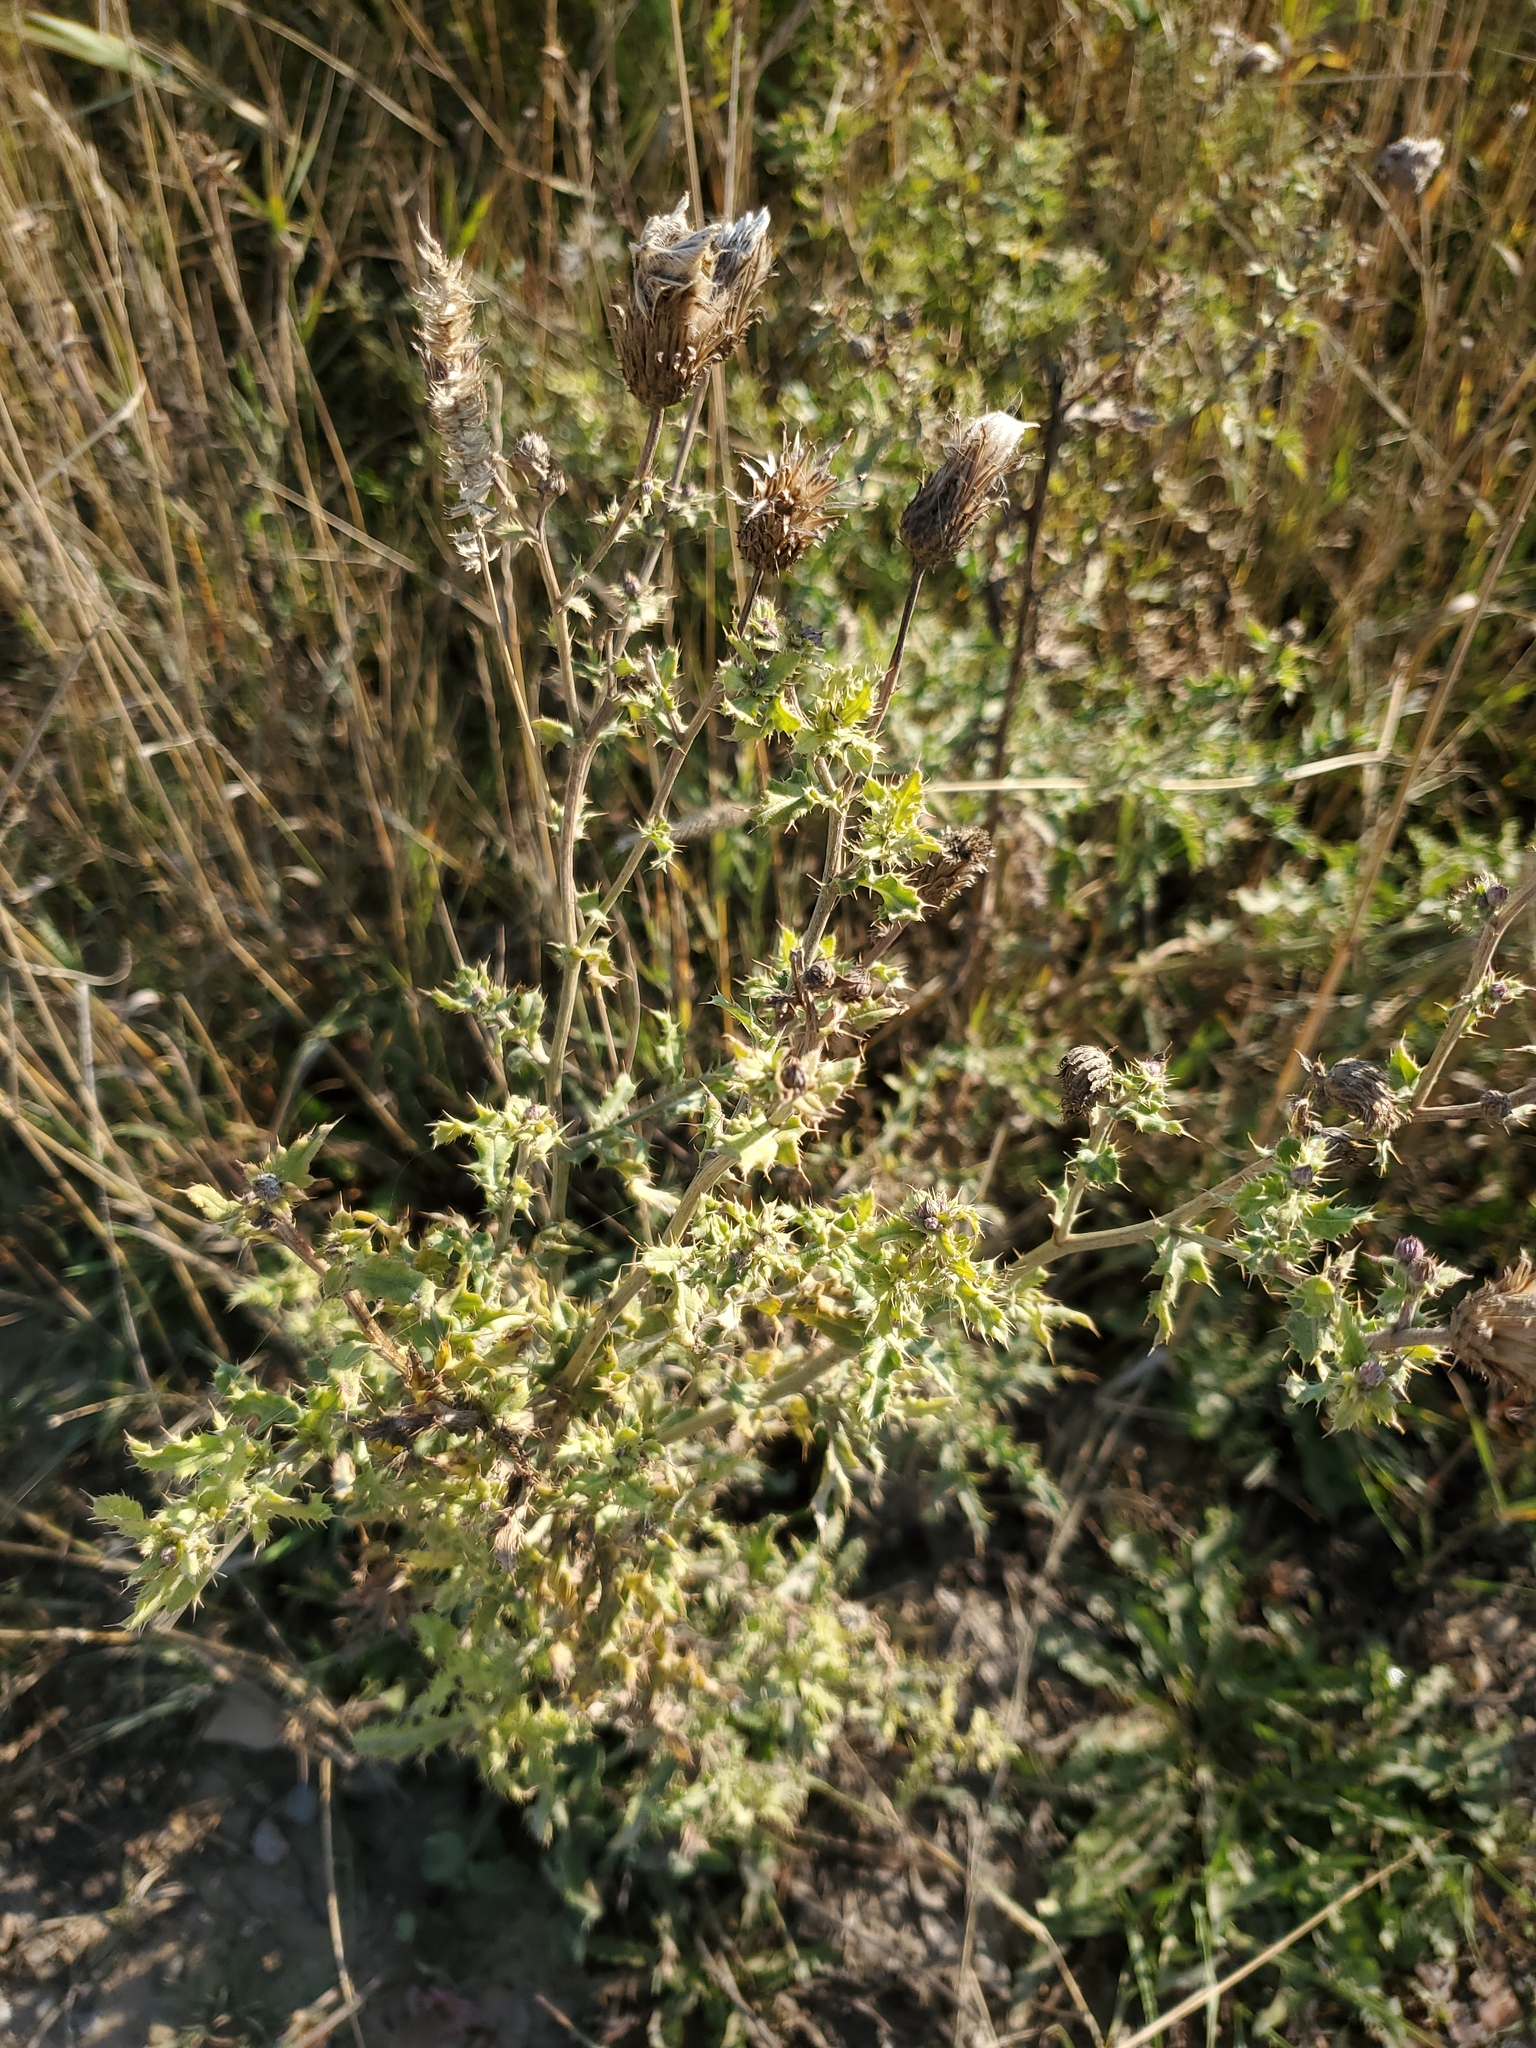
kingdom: Plantae
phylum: Tracheophyta
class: Magnoliopsida
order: Asterales
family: Asteraceae
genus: Cirsium
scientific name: Cirsium arvense
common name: Creeping thistle
